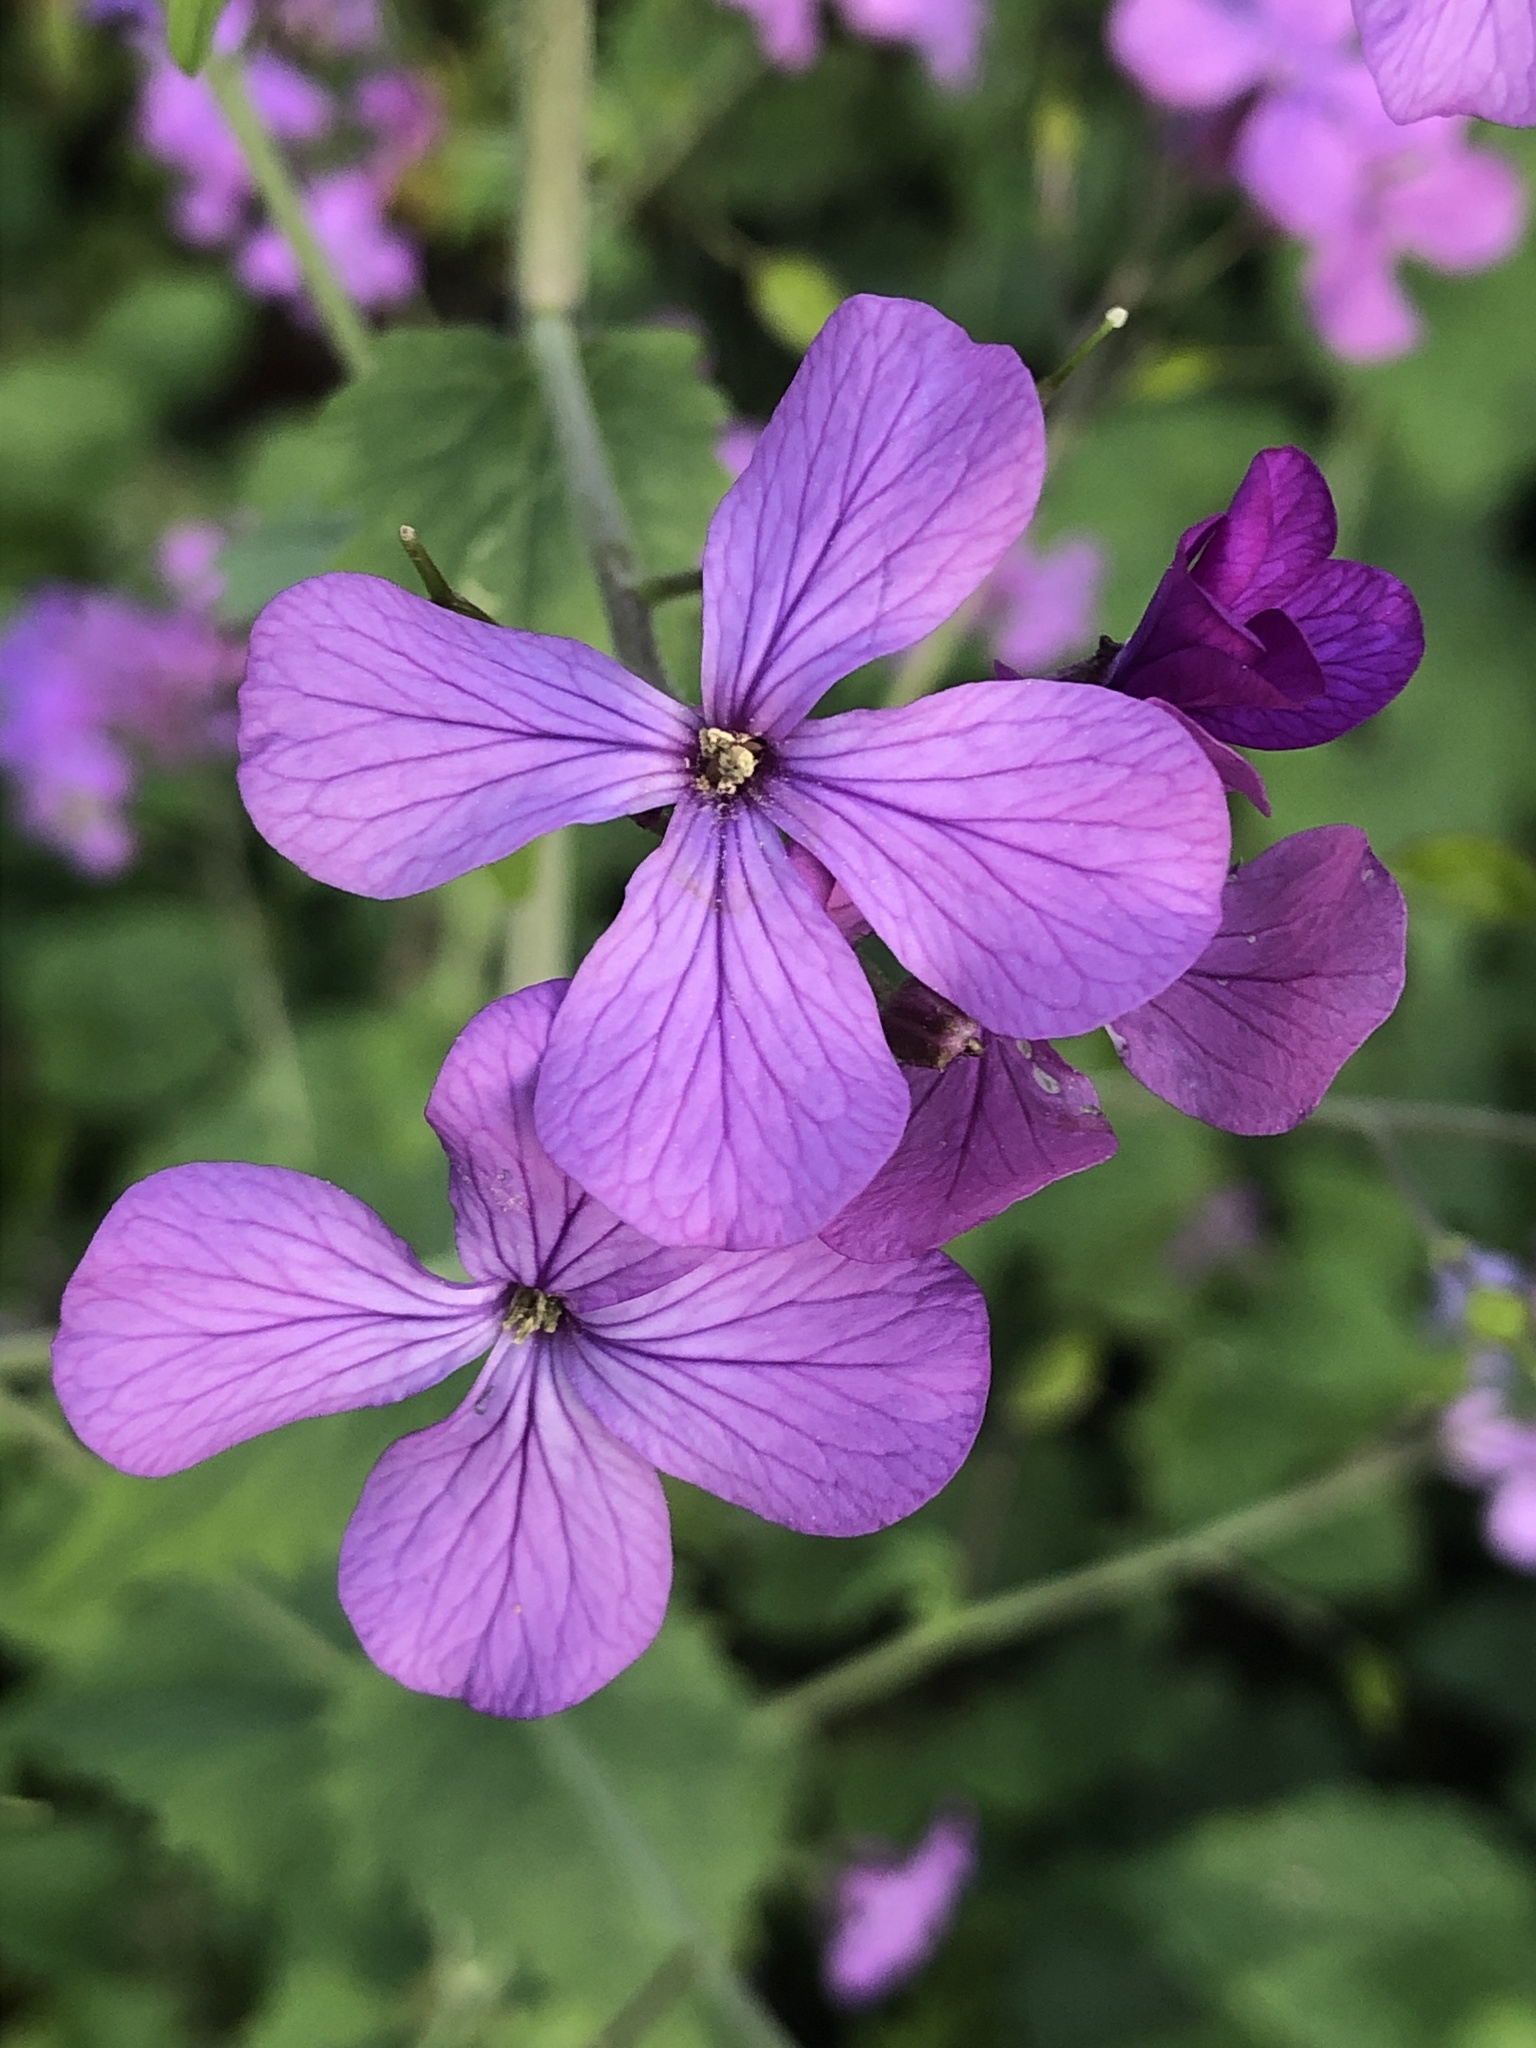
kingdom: Plantae
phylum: Tracheophyta
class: Magnoliopsida
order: Brassicales
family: Brassicaceae
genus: Lunaria
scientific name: Lunaria annua
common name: Honesty
